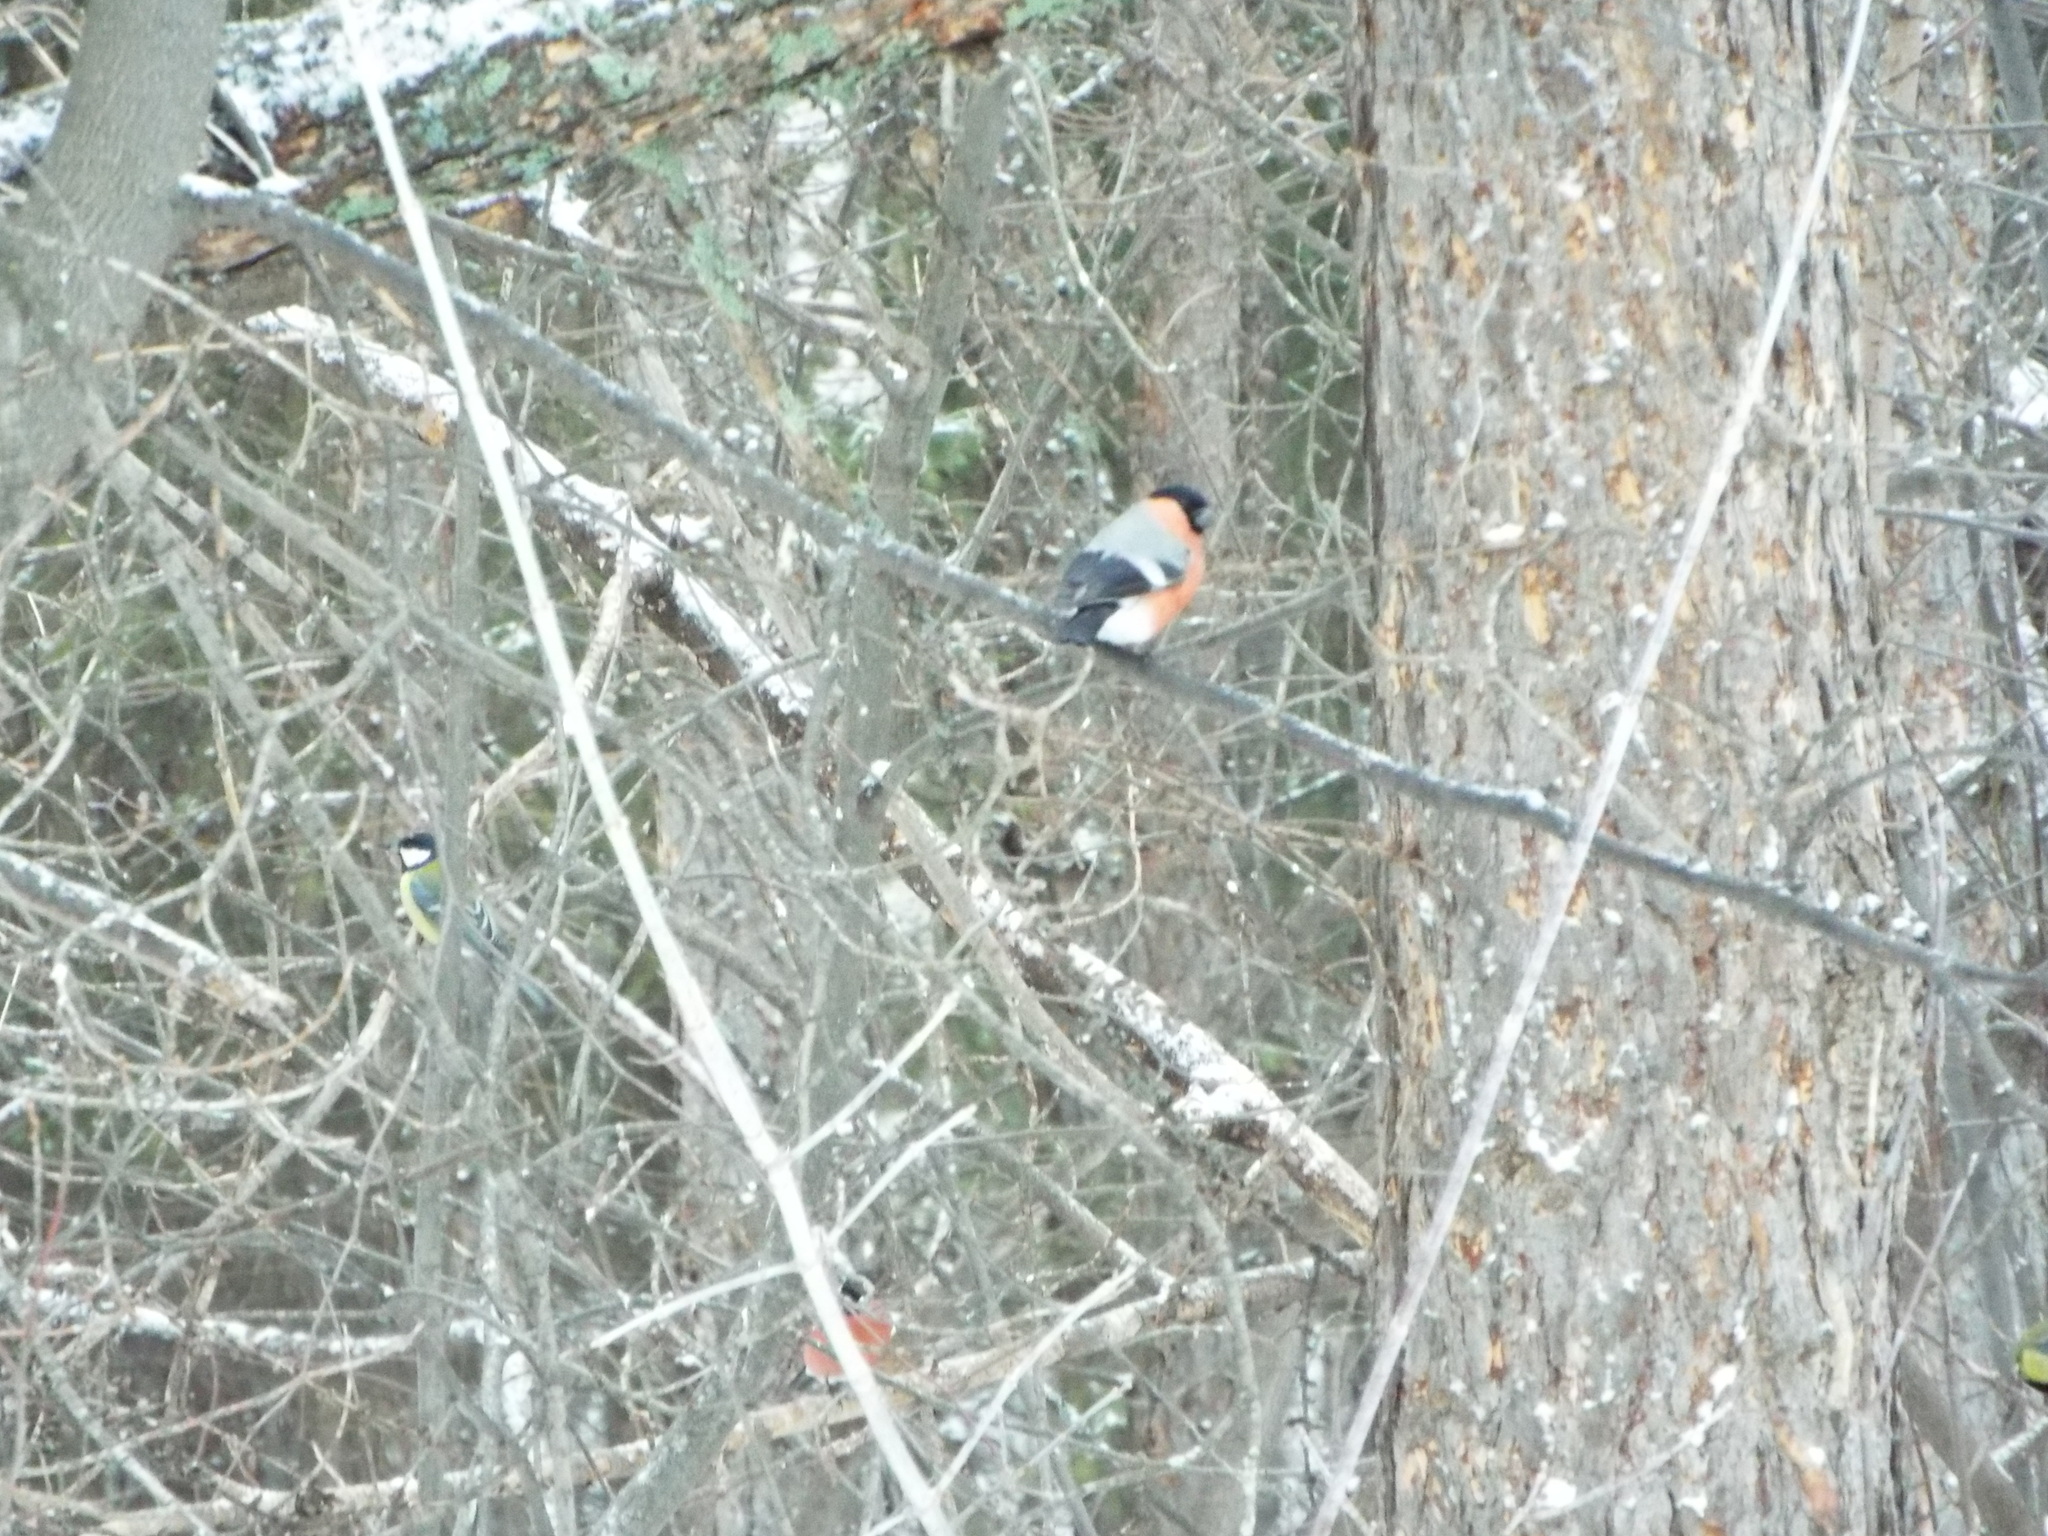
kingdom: Animalia
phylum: Chordata
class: Aves
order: Passeriformes
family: Fringillidae
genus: Pyrrhula
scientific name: Pyrrhula pyrrhula
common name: Eurasian bullfinch
